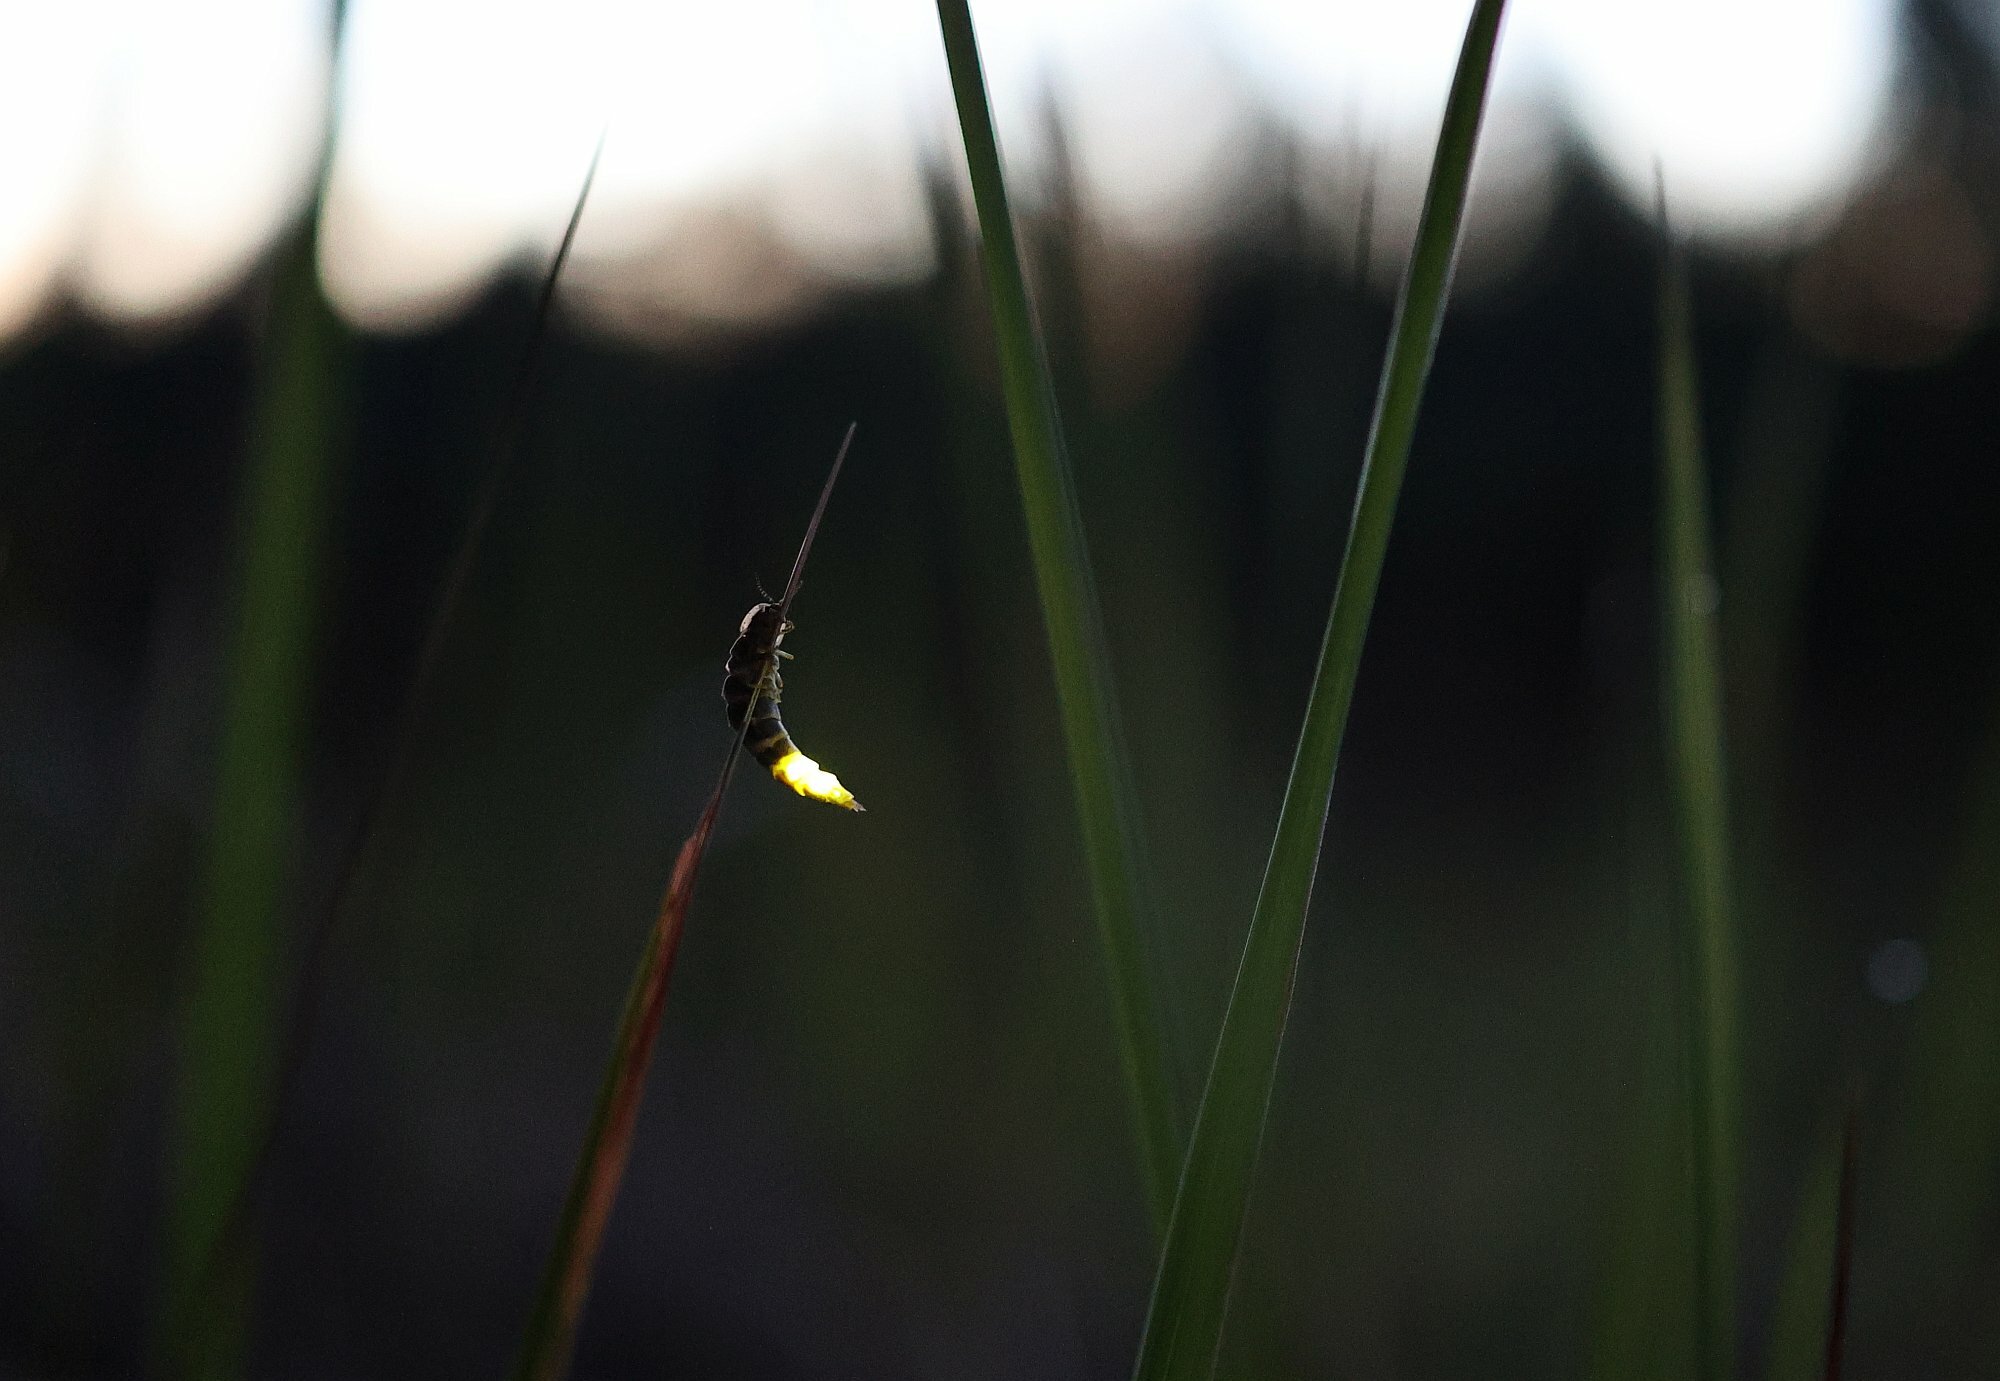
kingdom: Animalia
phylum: Arthropoda
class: Insecta
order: Coleoptera
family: Lampyridae
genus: Lampyris
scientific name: Lampyris noctiluca
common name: Glow-worm
